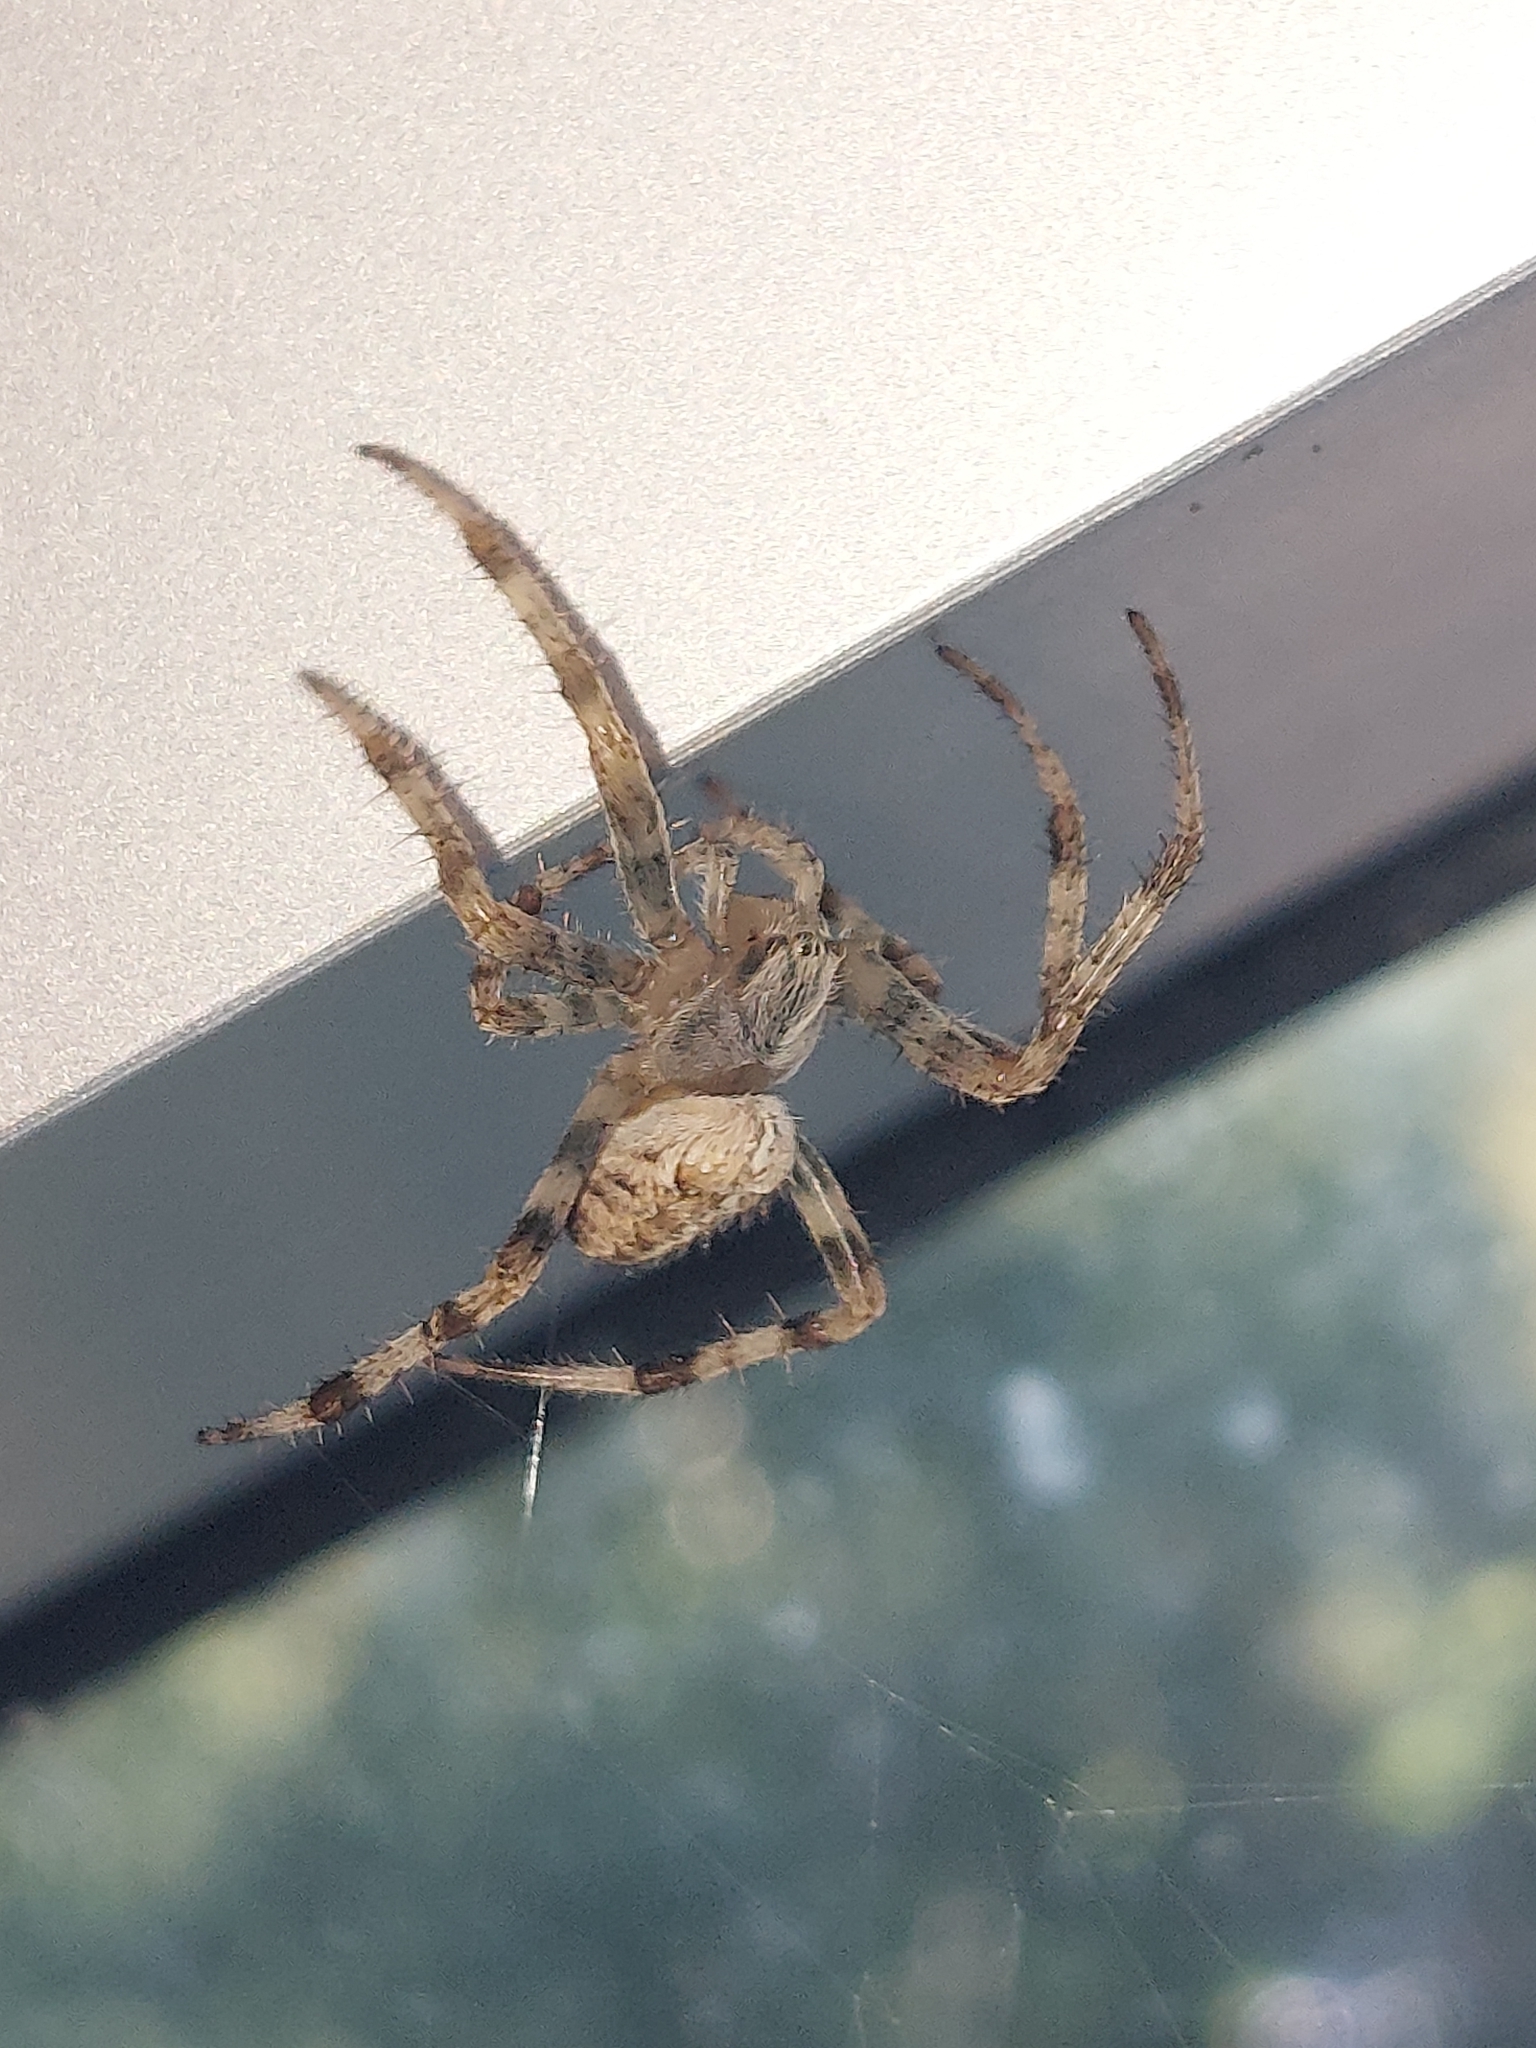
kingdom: Animalia
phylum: Arthropoda
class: Arachnida
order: Araneae
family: Araneidae
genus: Araneus
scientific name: Araneus diadematus
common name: Cross orbweaver
